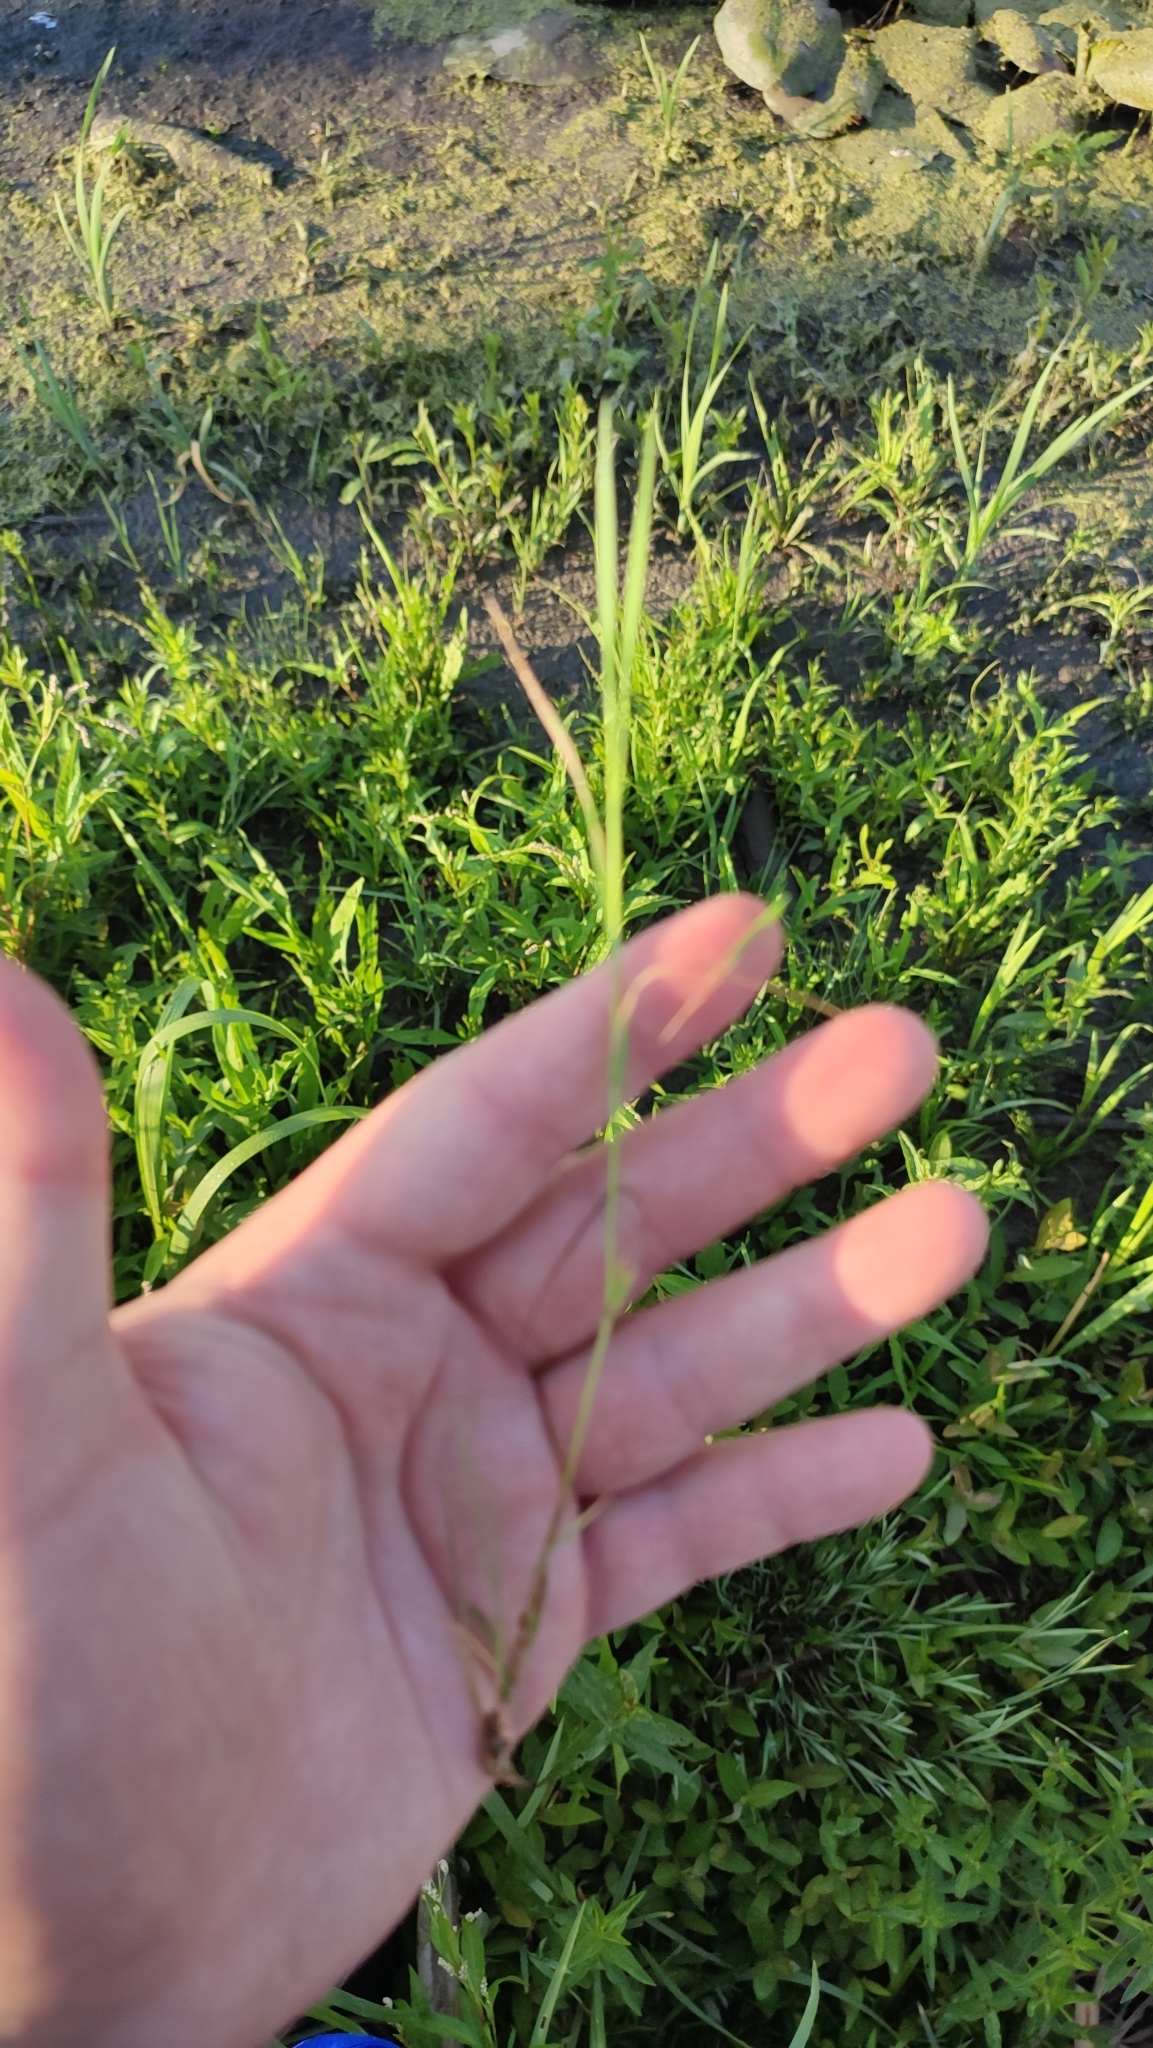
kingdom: Plantae
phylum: Tracheophyta
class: Liliopsida
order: Poales
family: Poaceae
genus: Alopecurus
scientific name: Alopecurus aequalis
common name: Orange foxtail
